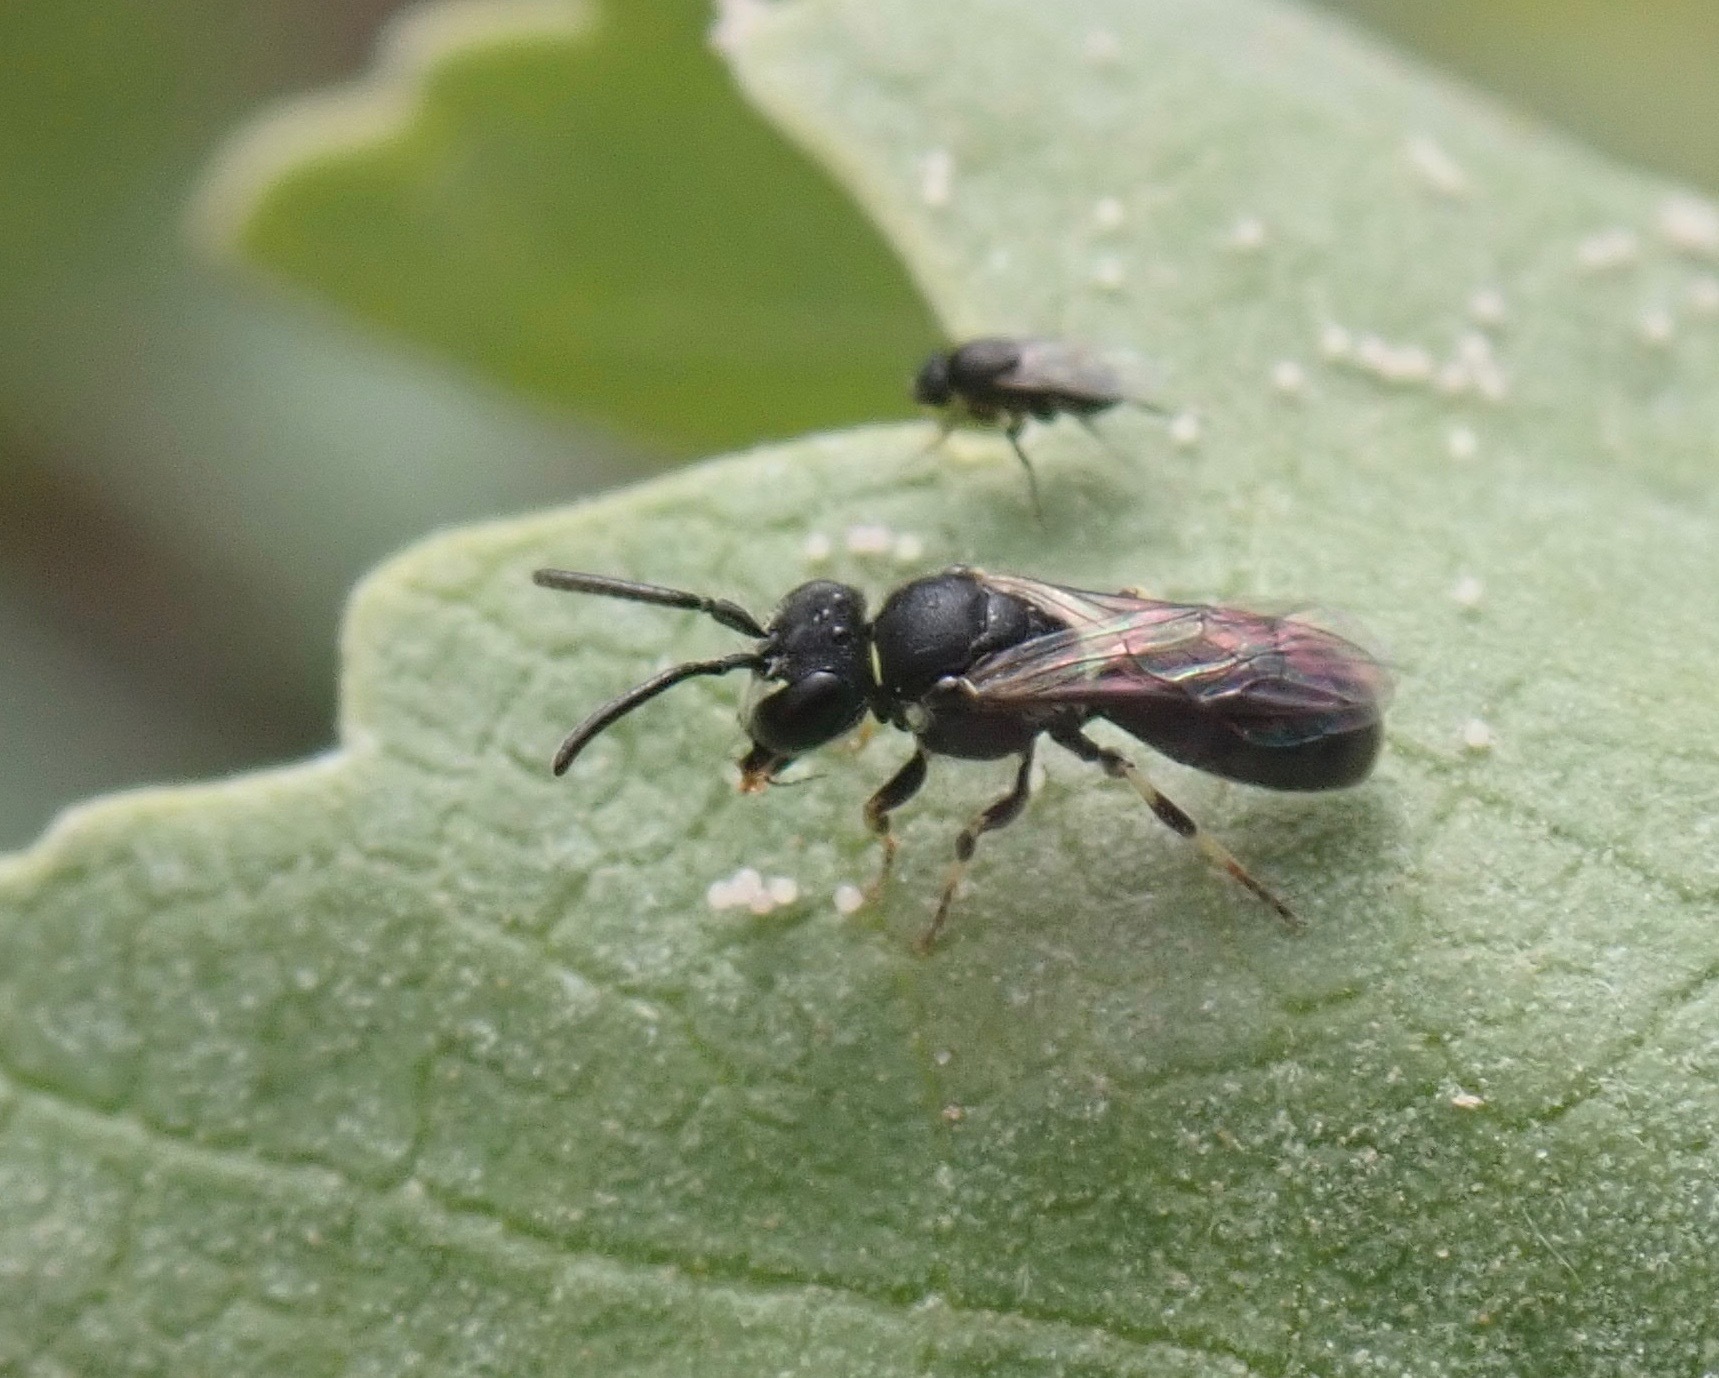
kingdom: Animalia
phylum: Arthropoda
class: Insecta
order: Hymenoptera
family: Colletidae
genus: Hylaeus
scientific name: Hylaeus polifolii
